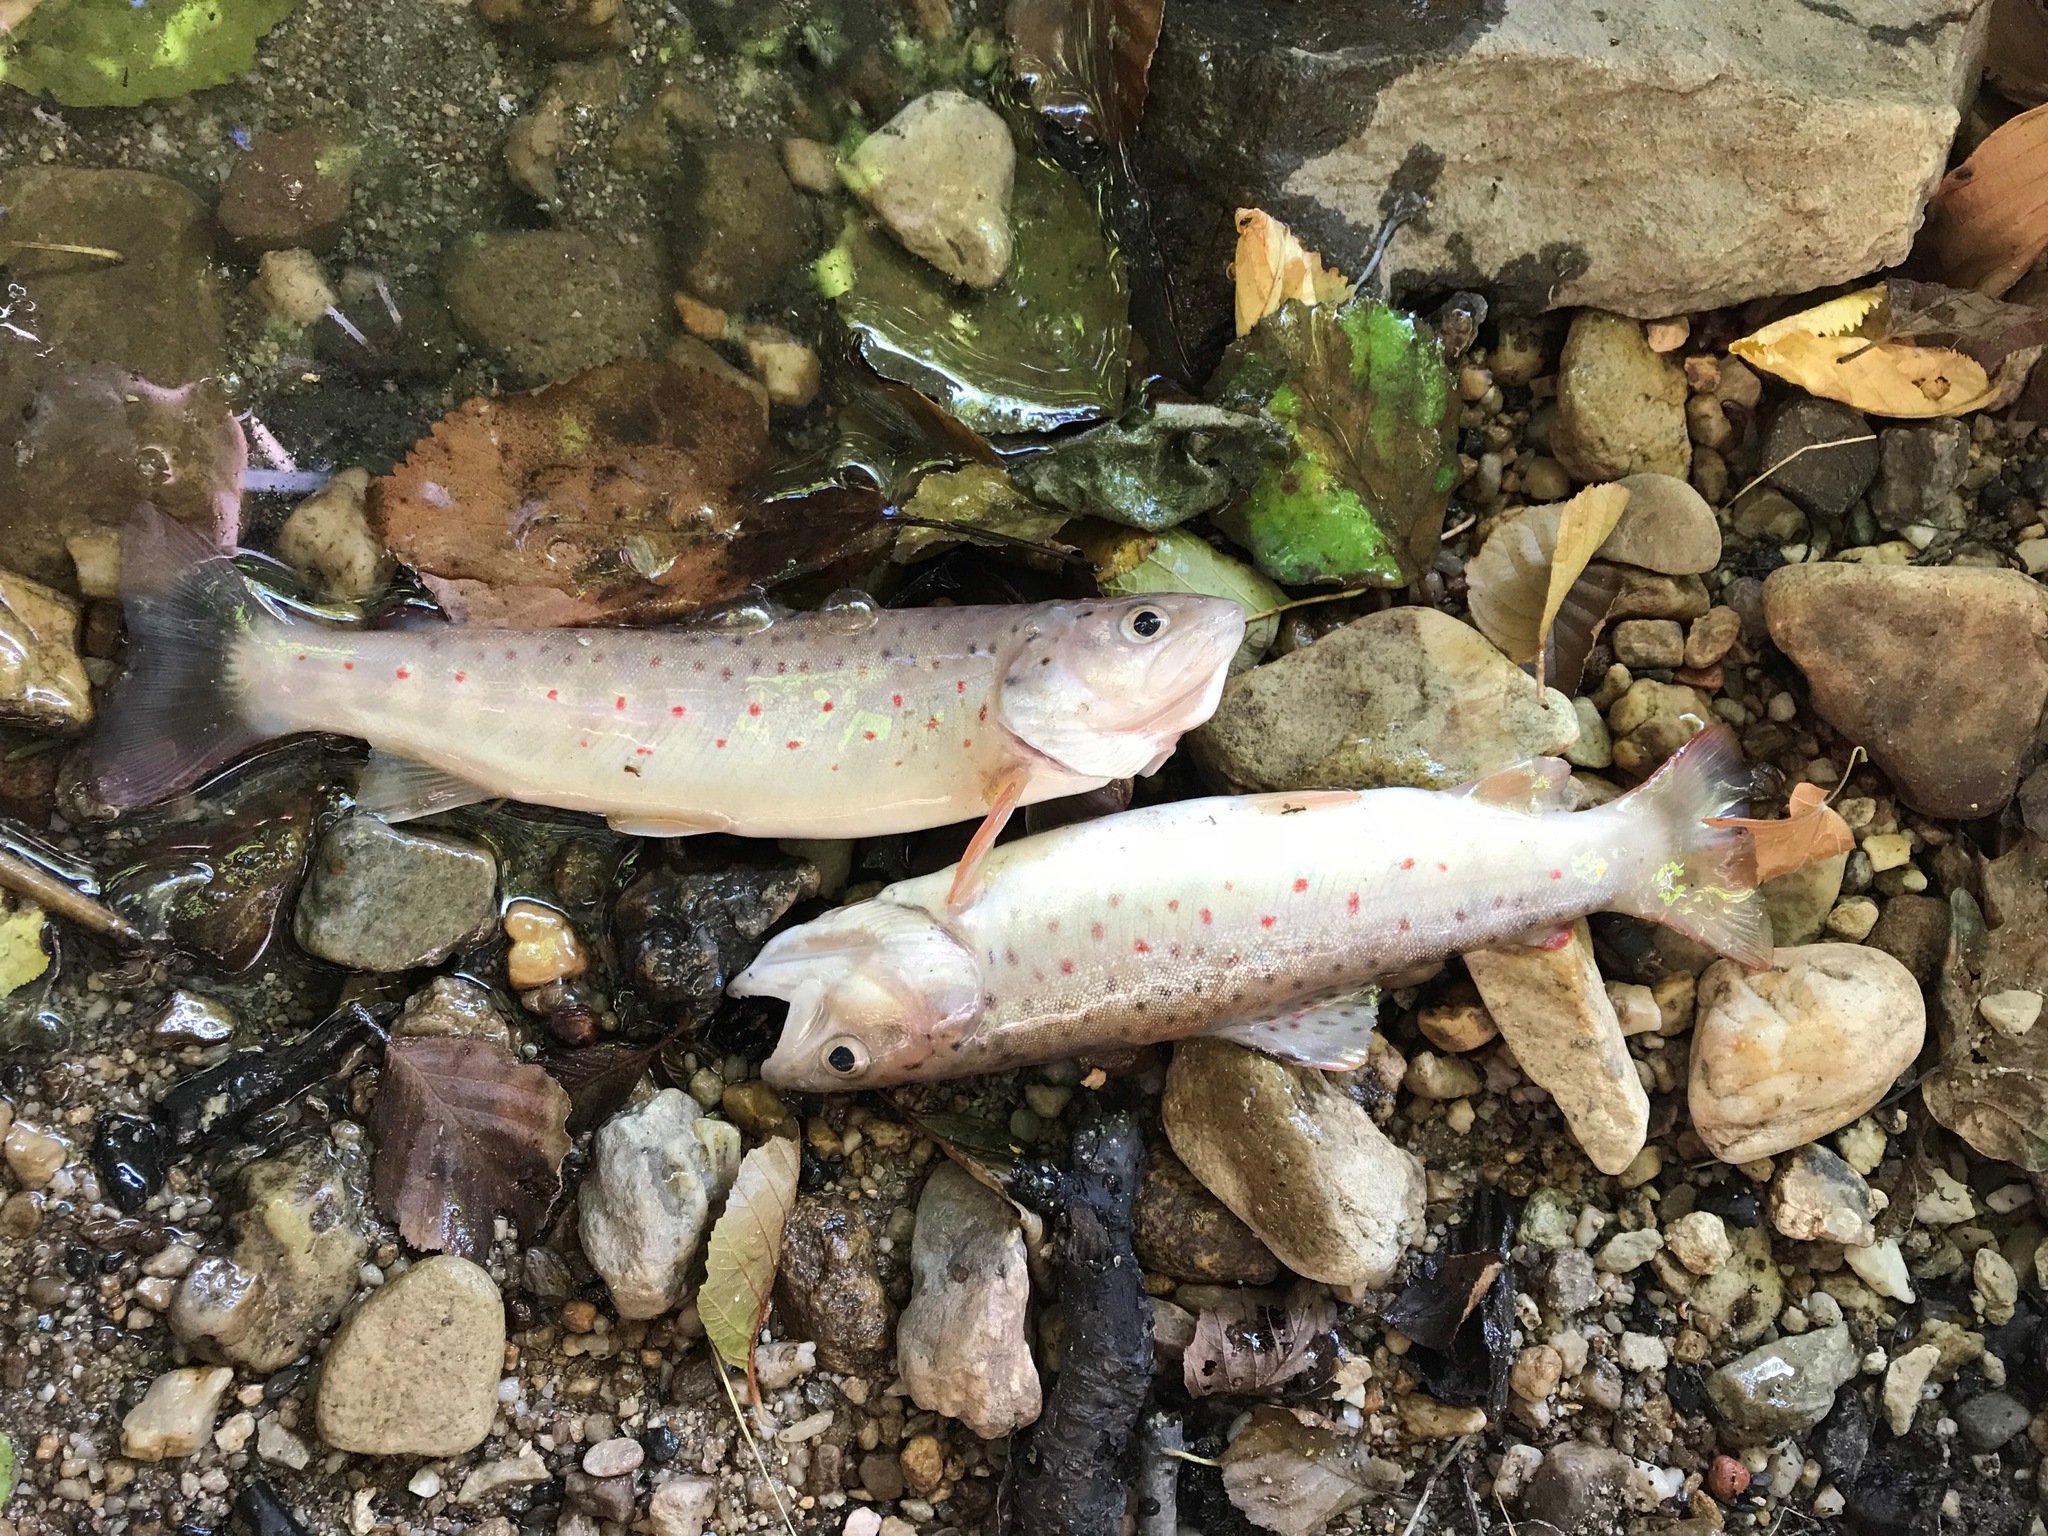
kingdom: Animalia
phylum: Chordata
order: Salmoniformes
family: Salmonidae
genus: Salmo
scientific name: Salmo trutta
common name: Brown trout
